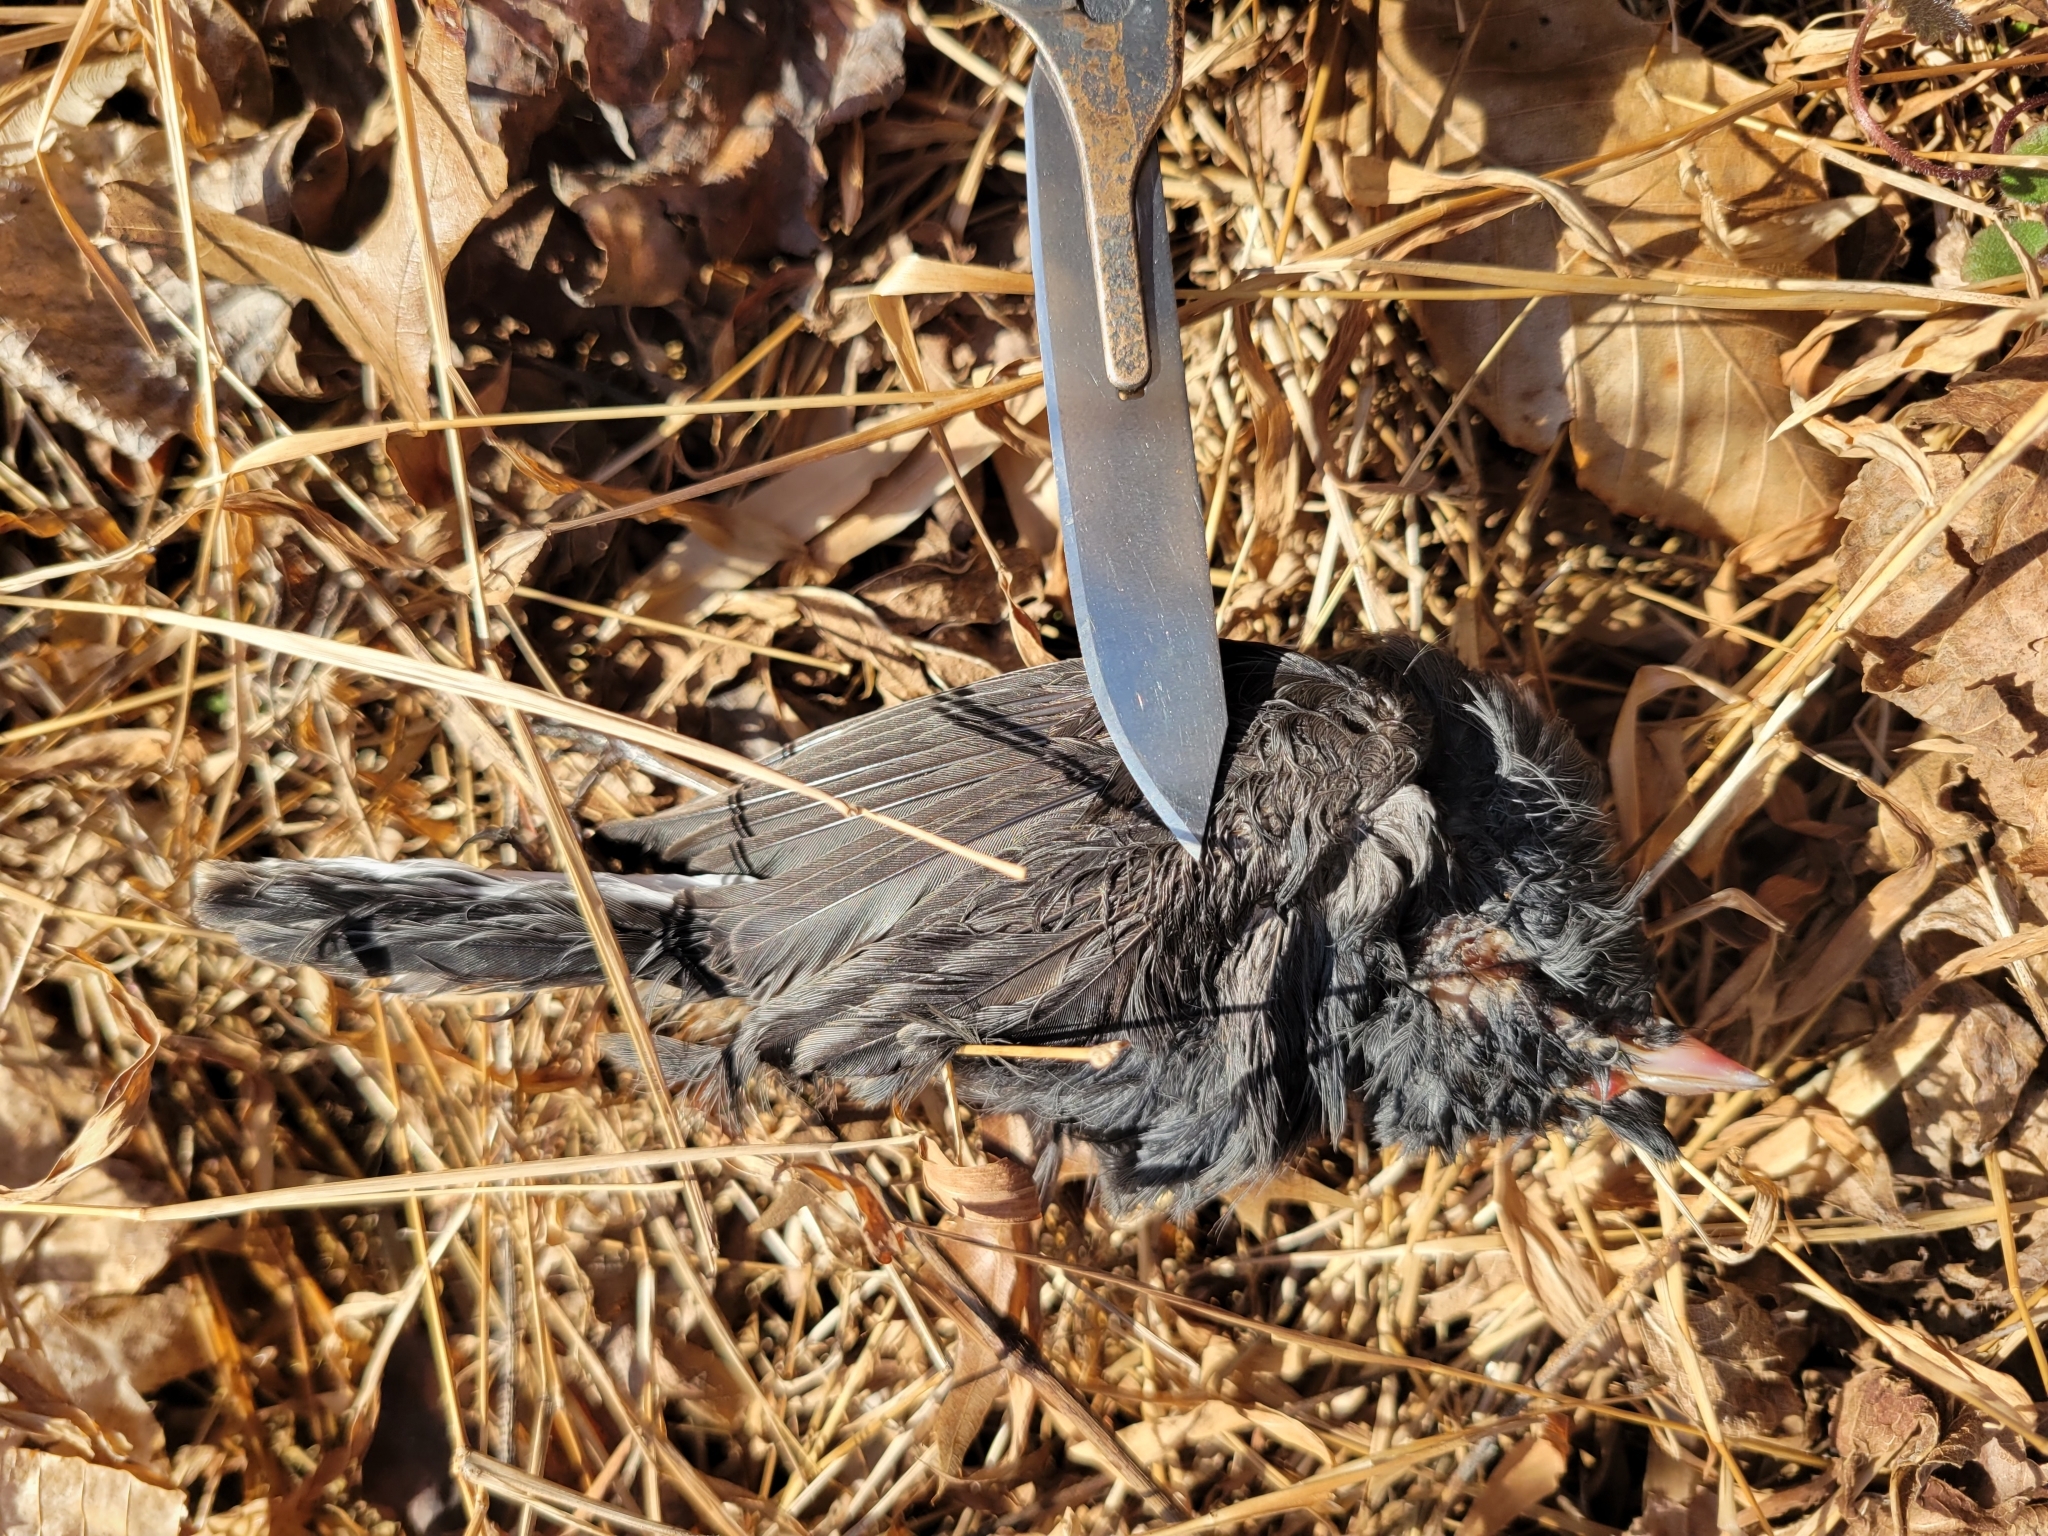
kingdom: Animalia
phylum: Chordata
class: Aves
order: Passeriformes
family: Passerellidae
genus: Junco
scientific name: Junco hyemalis
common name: Dark-eyed junco
